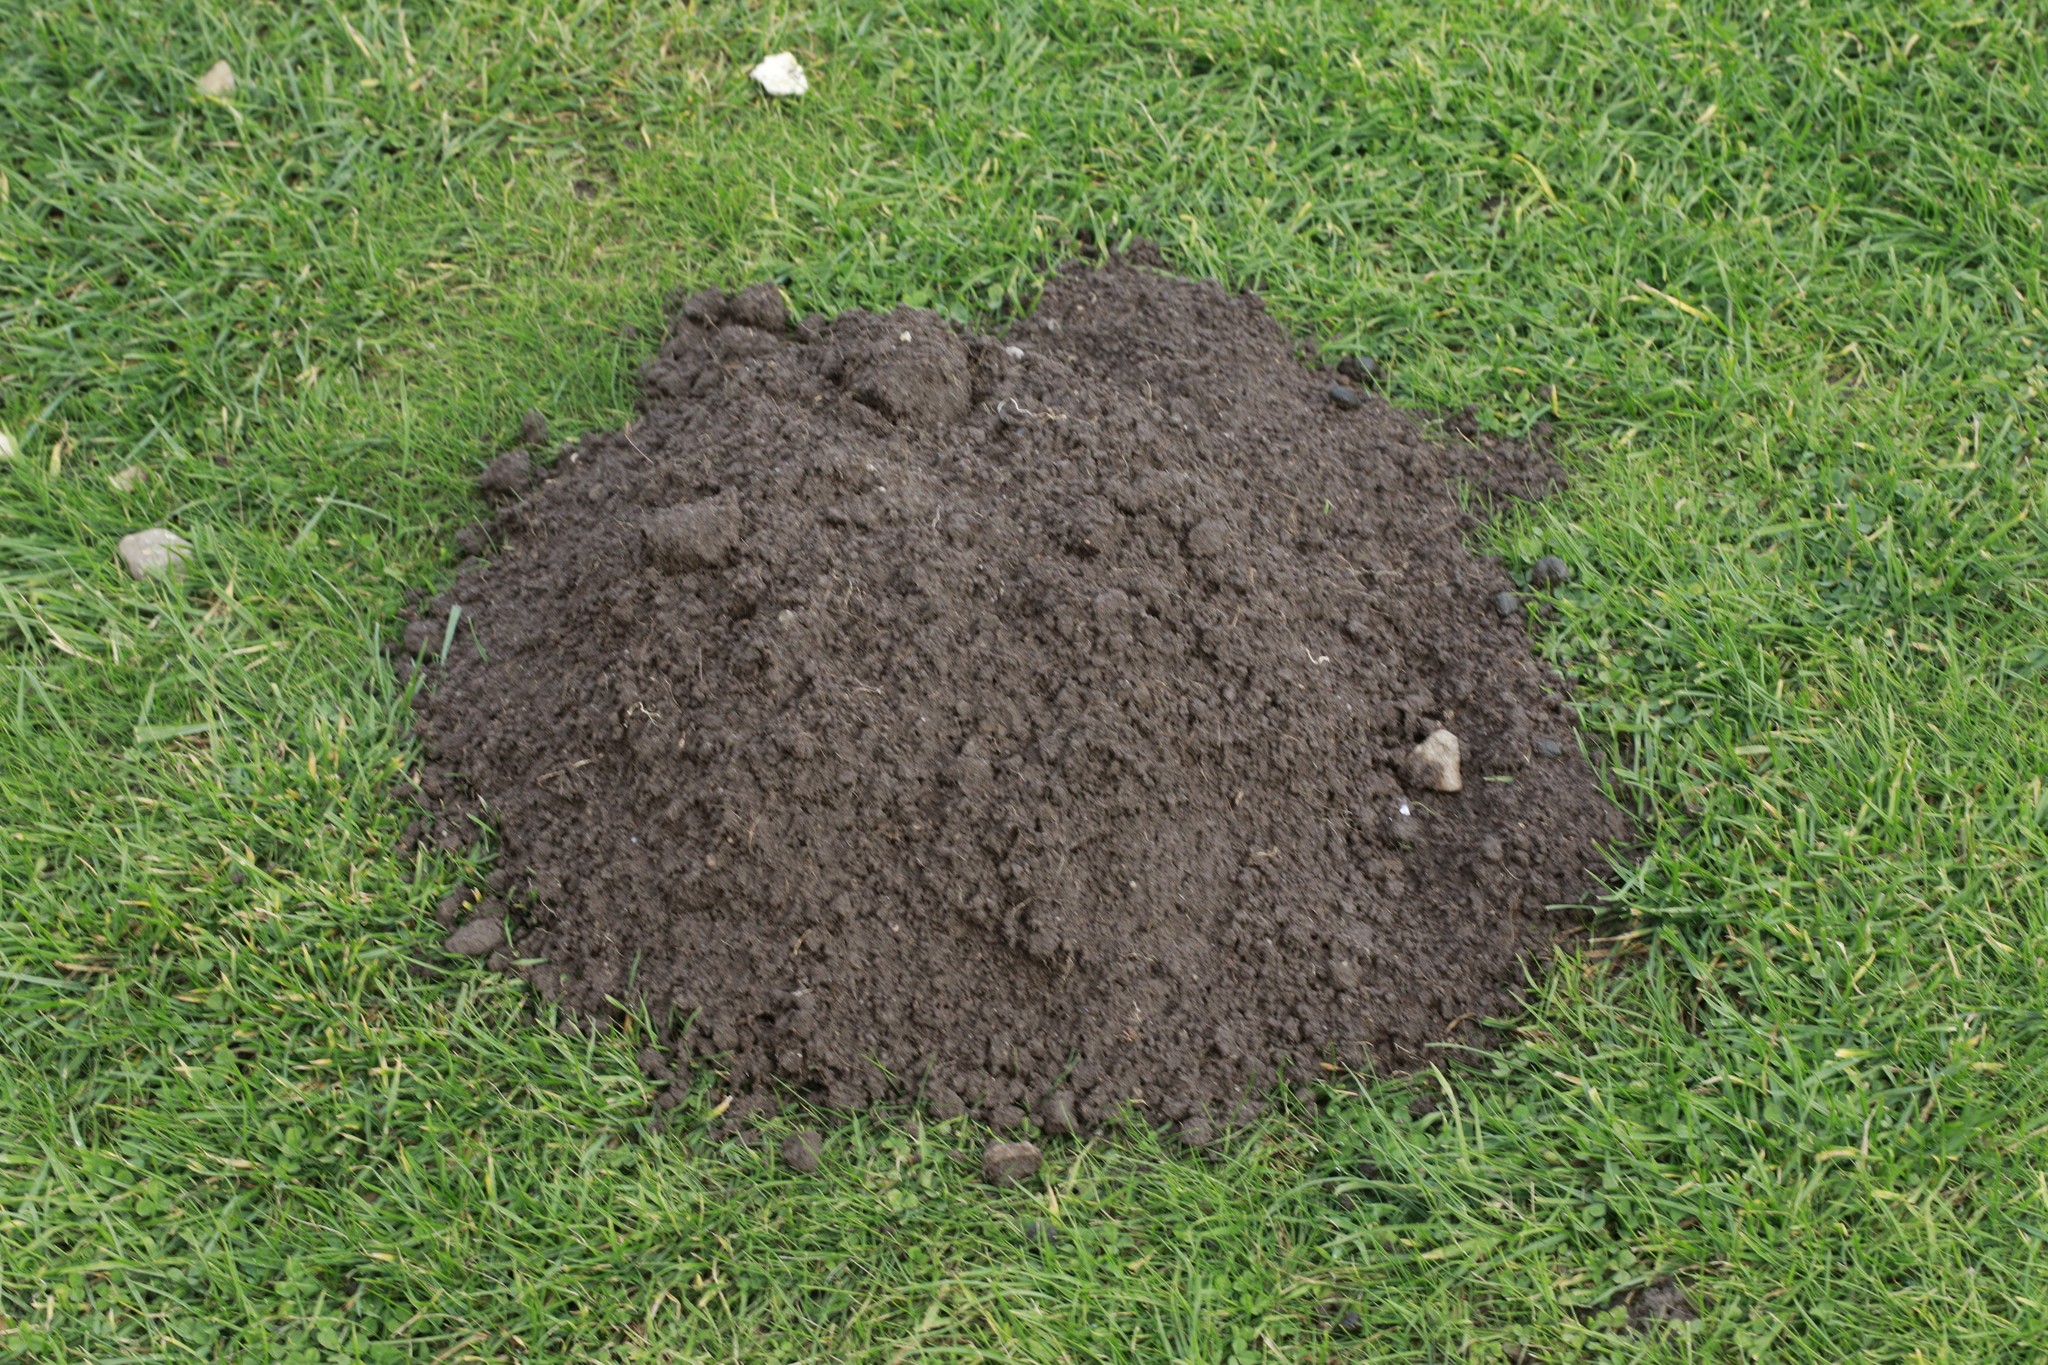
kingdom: Animalia
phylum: Chordata
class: Mammalia
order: Soricomorpha
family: Talpidae
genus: Talpa
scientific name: Talpa europaea
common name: European mole
